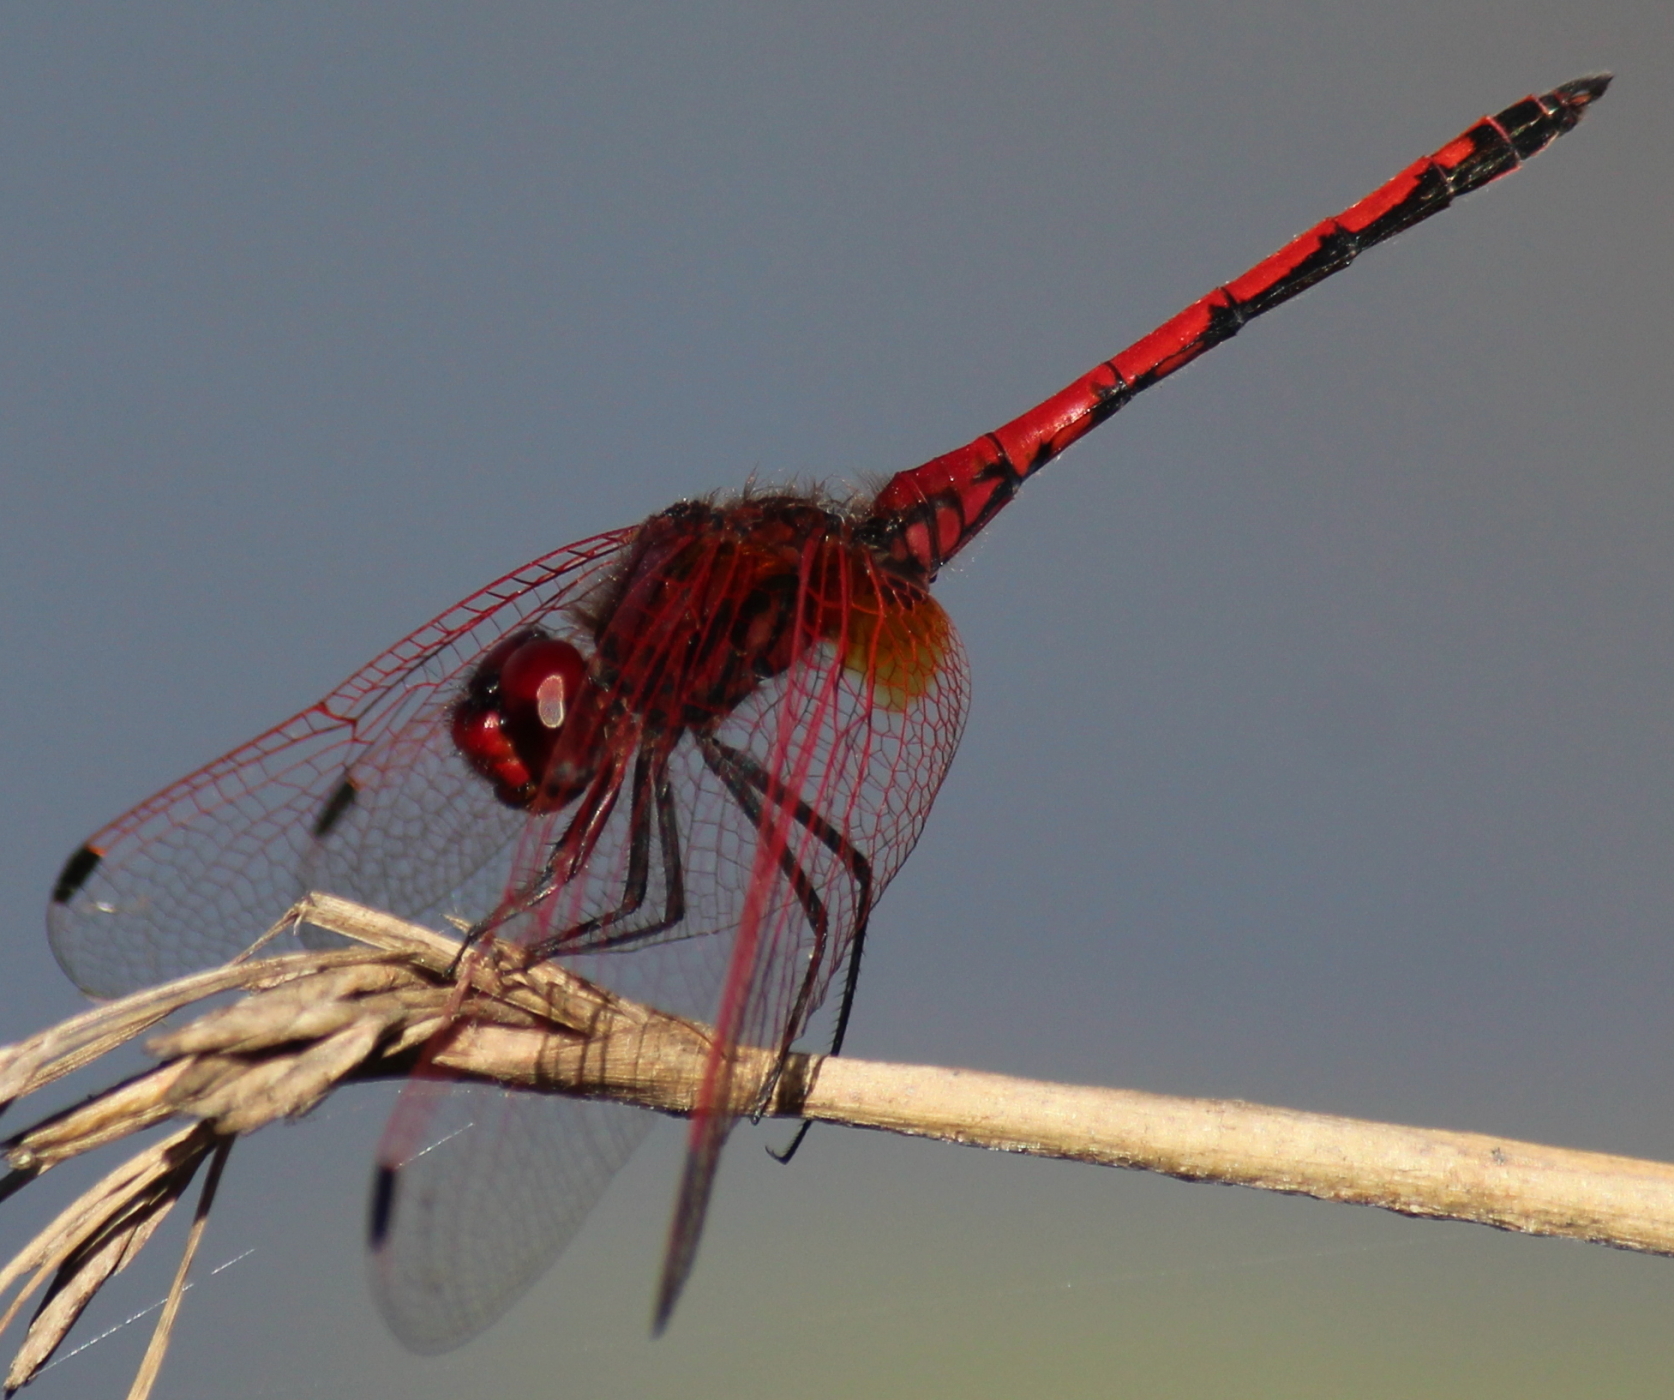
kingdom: Animalia
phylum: Arthropoda
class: Insecta
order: Odonata
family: Libellulidae
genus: Trithemis
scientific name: Trithemis arteriosa
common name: Red-veined dropwing
